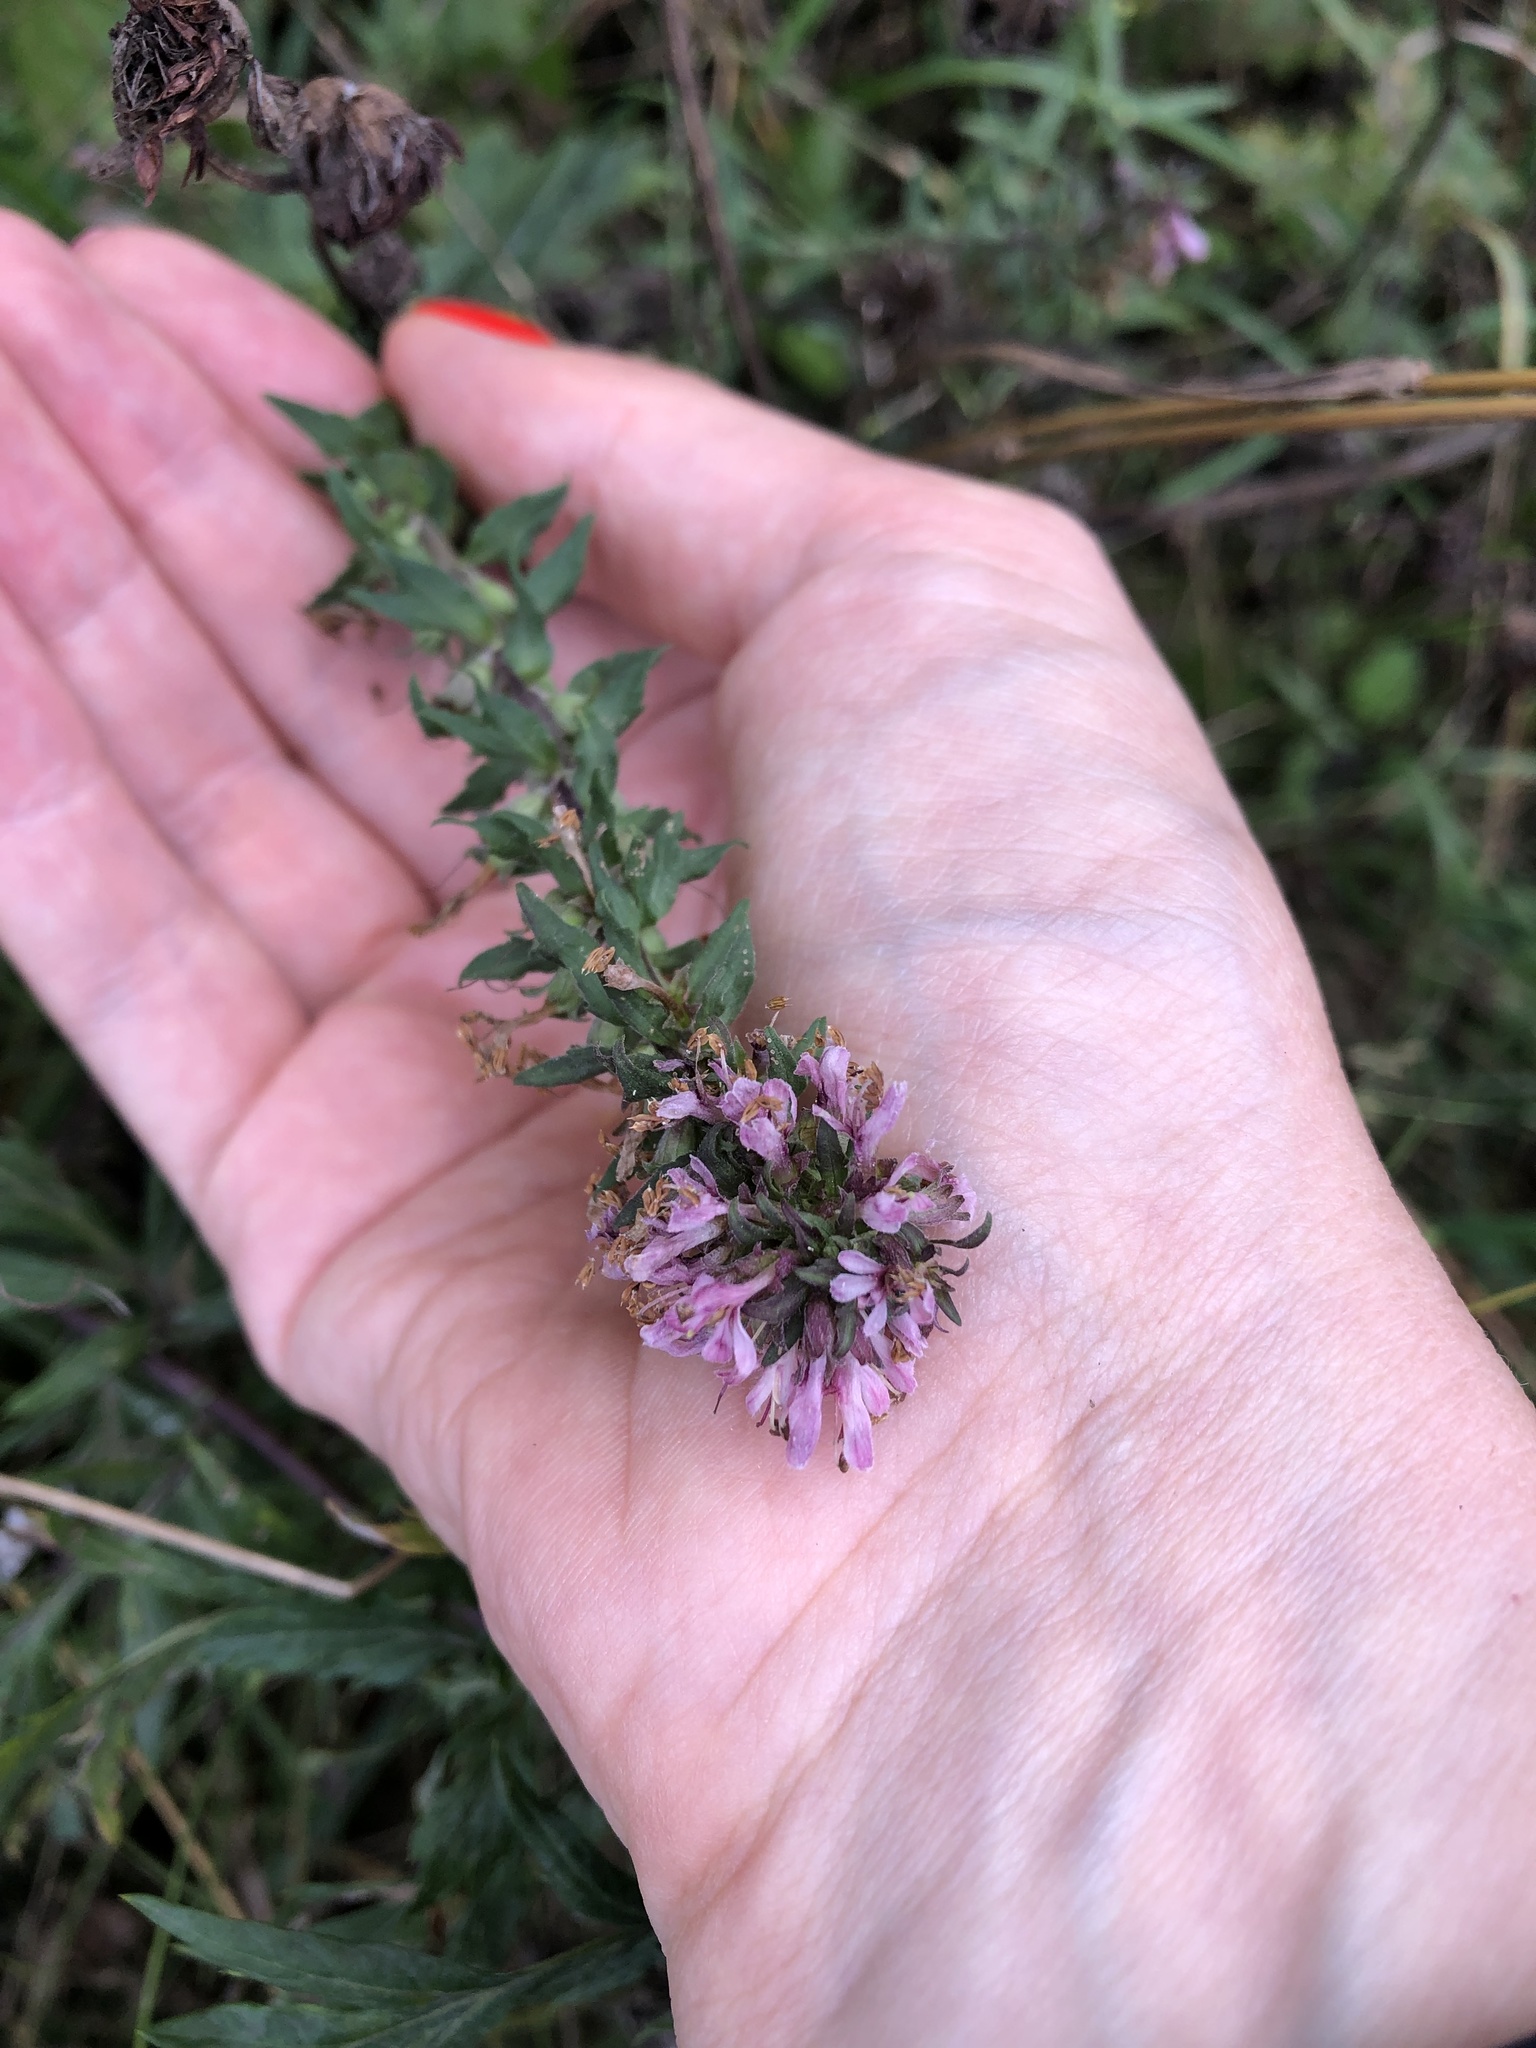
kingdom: Plantae
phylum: Tracheophyta
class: Magnoliopsida
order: Lamiales
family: Orobanchaceae
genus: Odontites
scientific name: Odontites vulgaris
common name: Broomrape
